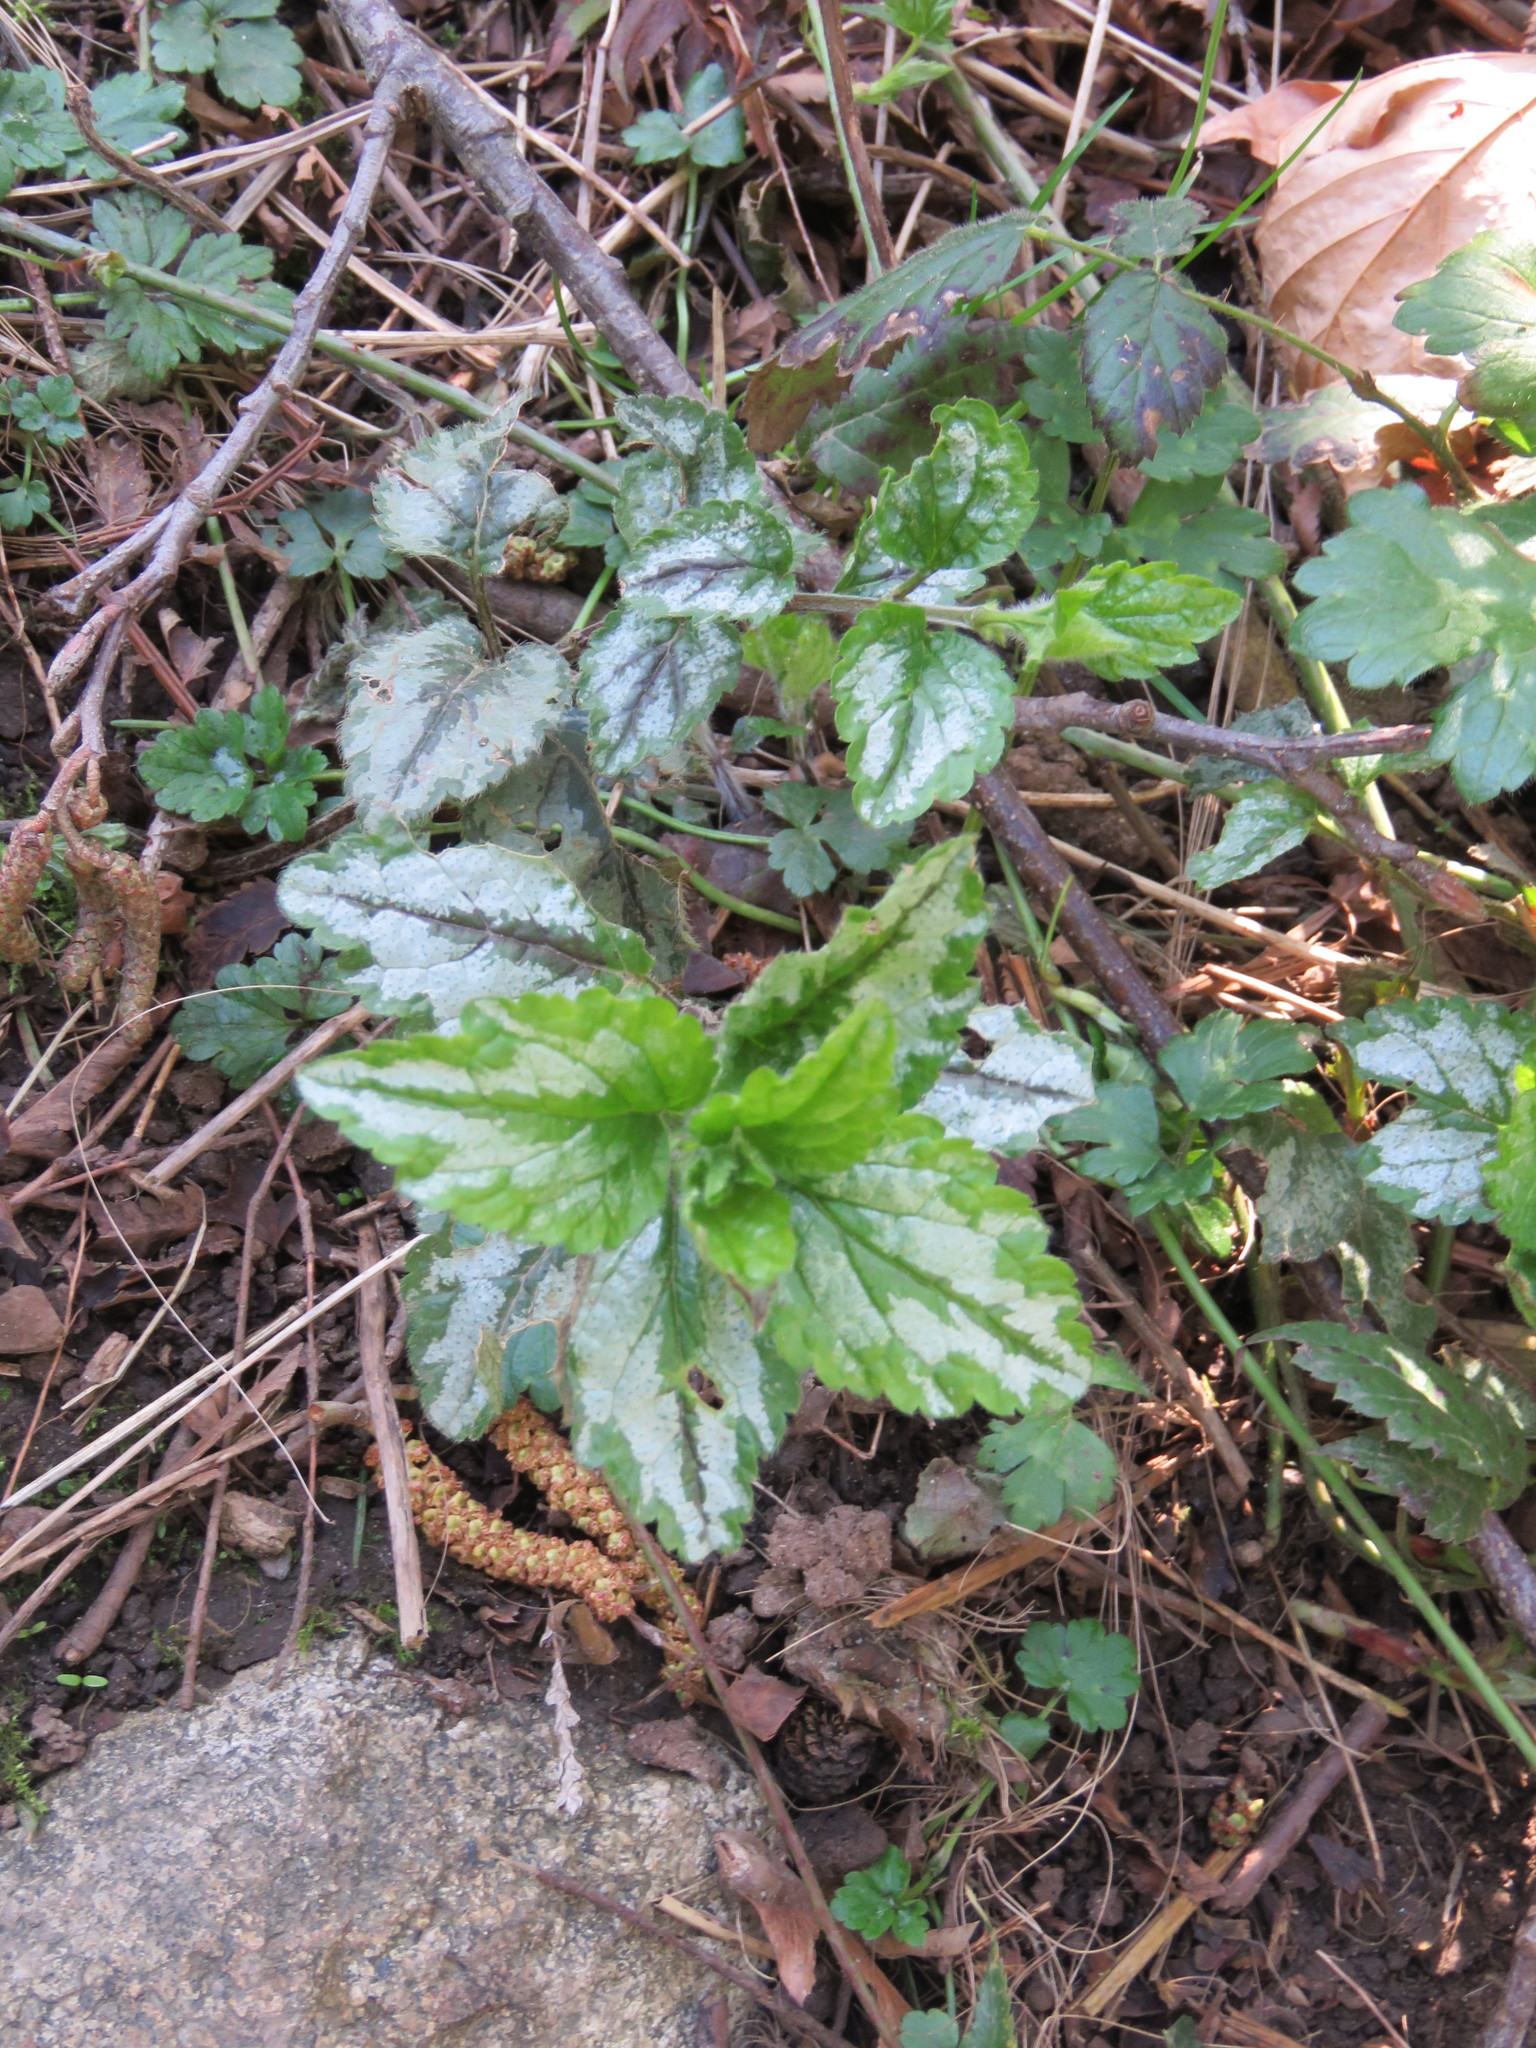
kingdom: Plantae
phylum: Tracheophyta
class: Magnoliopsida
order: Lamiales
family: Lamiaceae
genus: Lamium
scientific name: Lamium galeobdolon
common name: Yellow archangel
